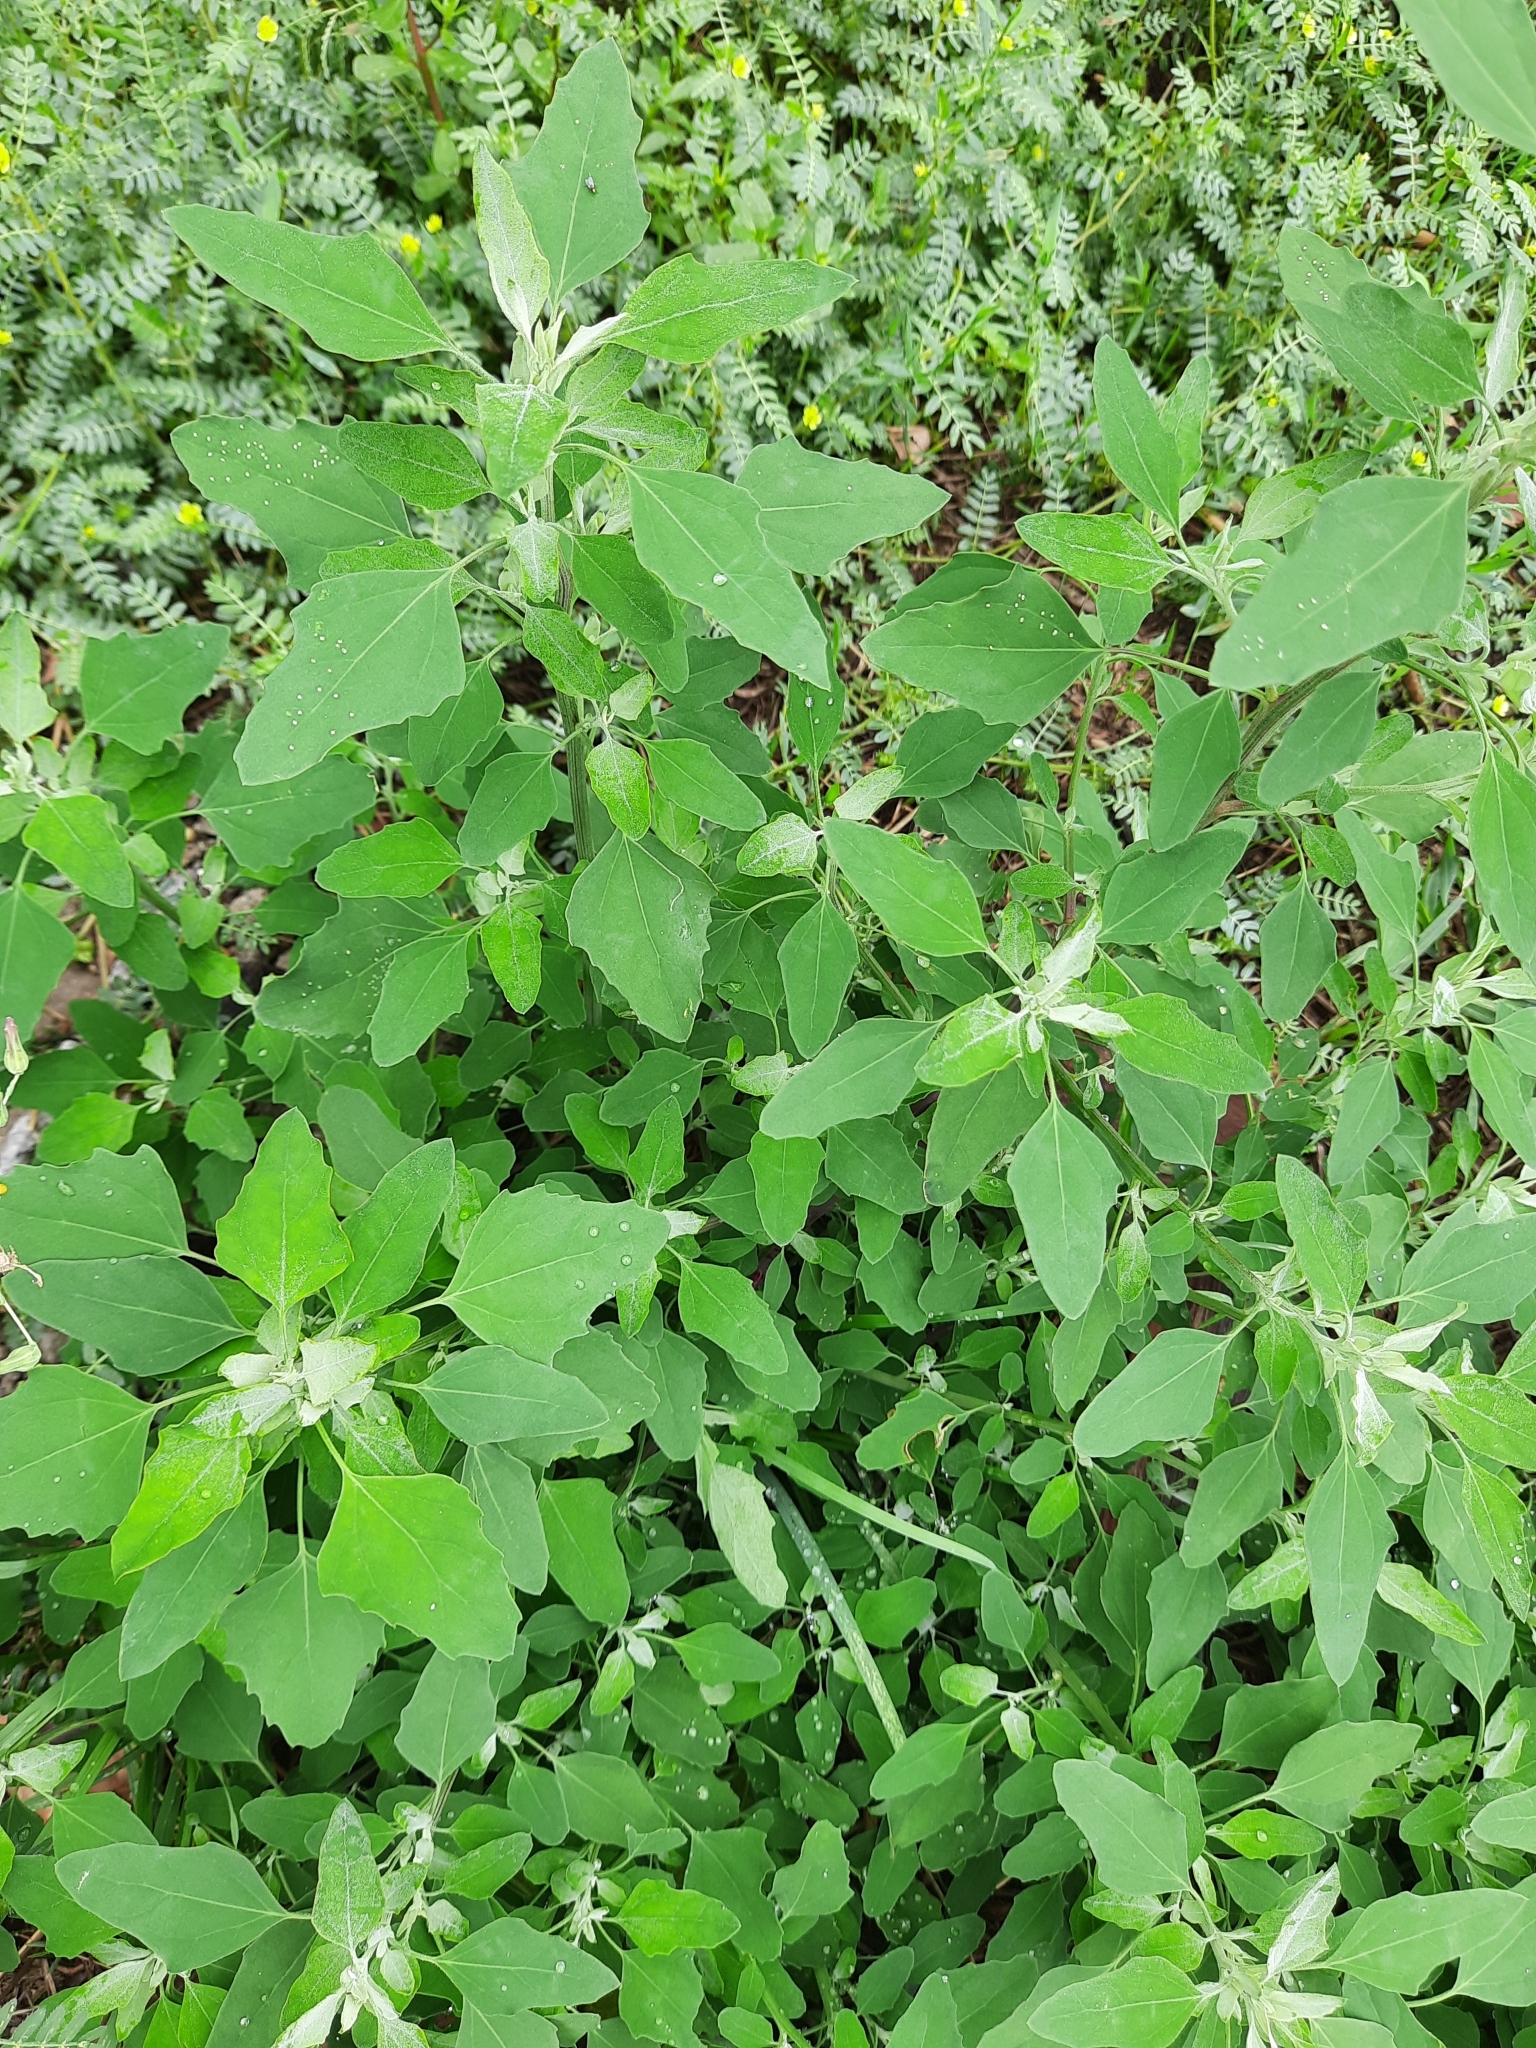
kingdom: Plantae
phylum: Tracheophyta
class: Magnoliopsida
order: Caryophyllales
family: Amaranthaceae
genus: Chenopodium
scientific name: Chenopodium album
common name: Fat-hen
